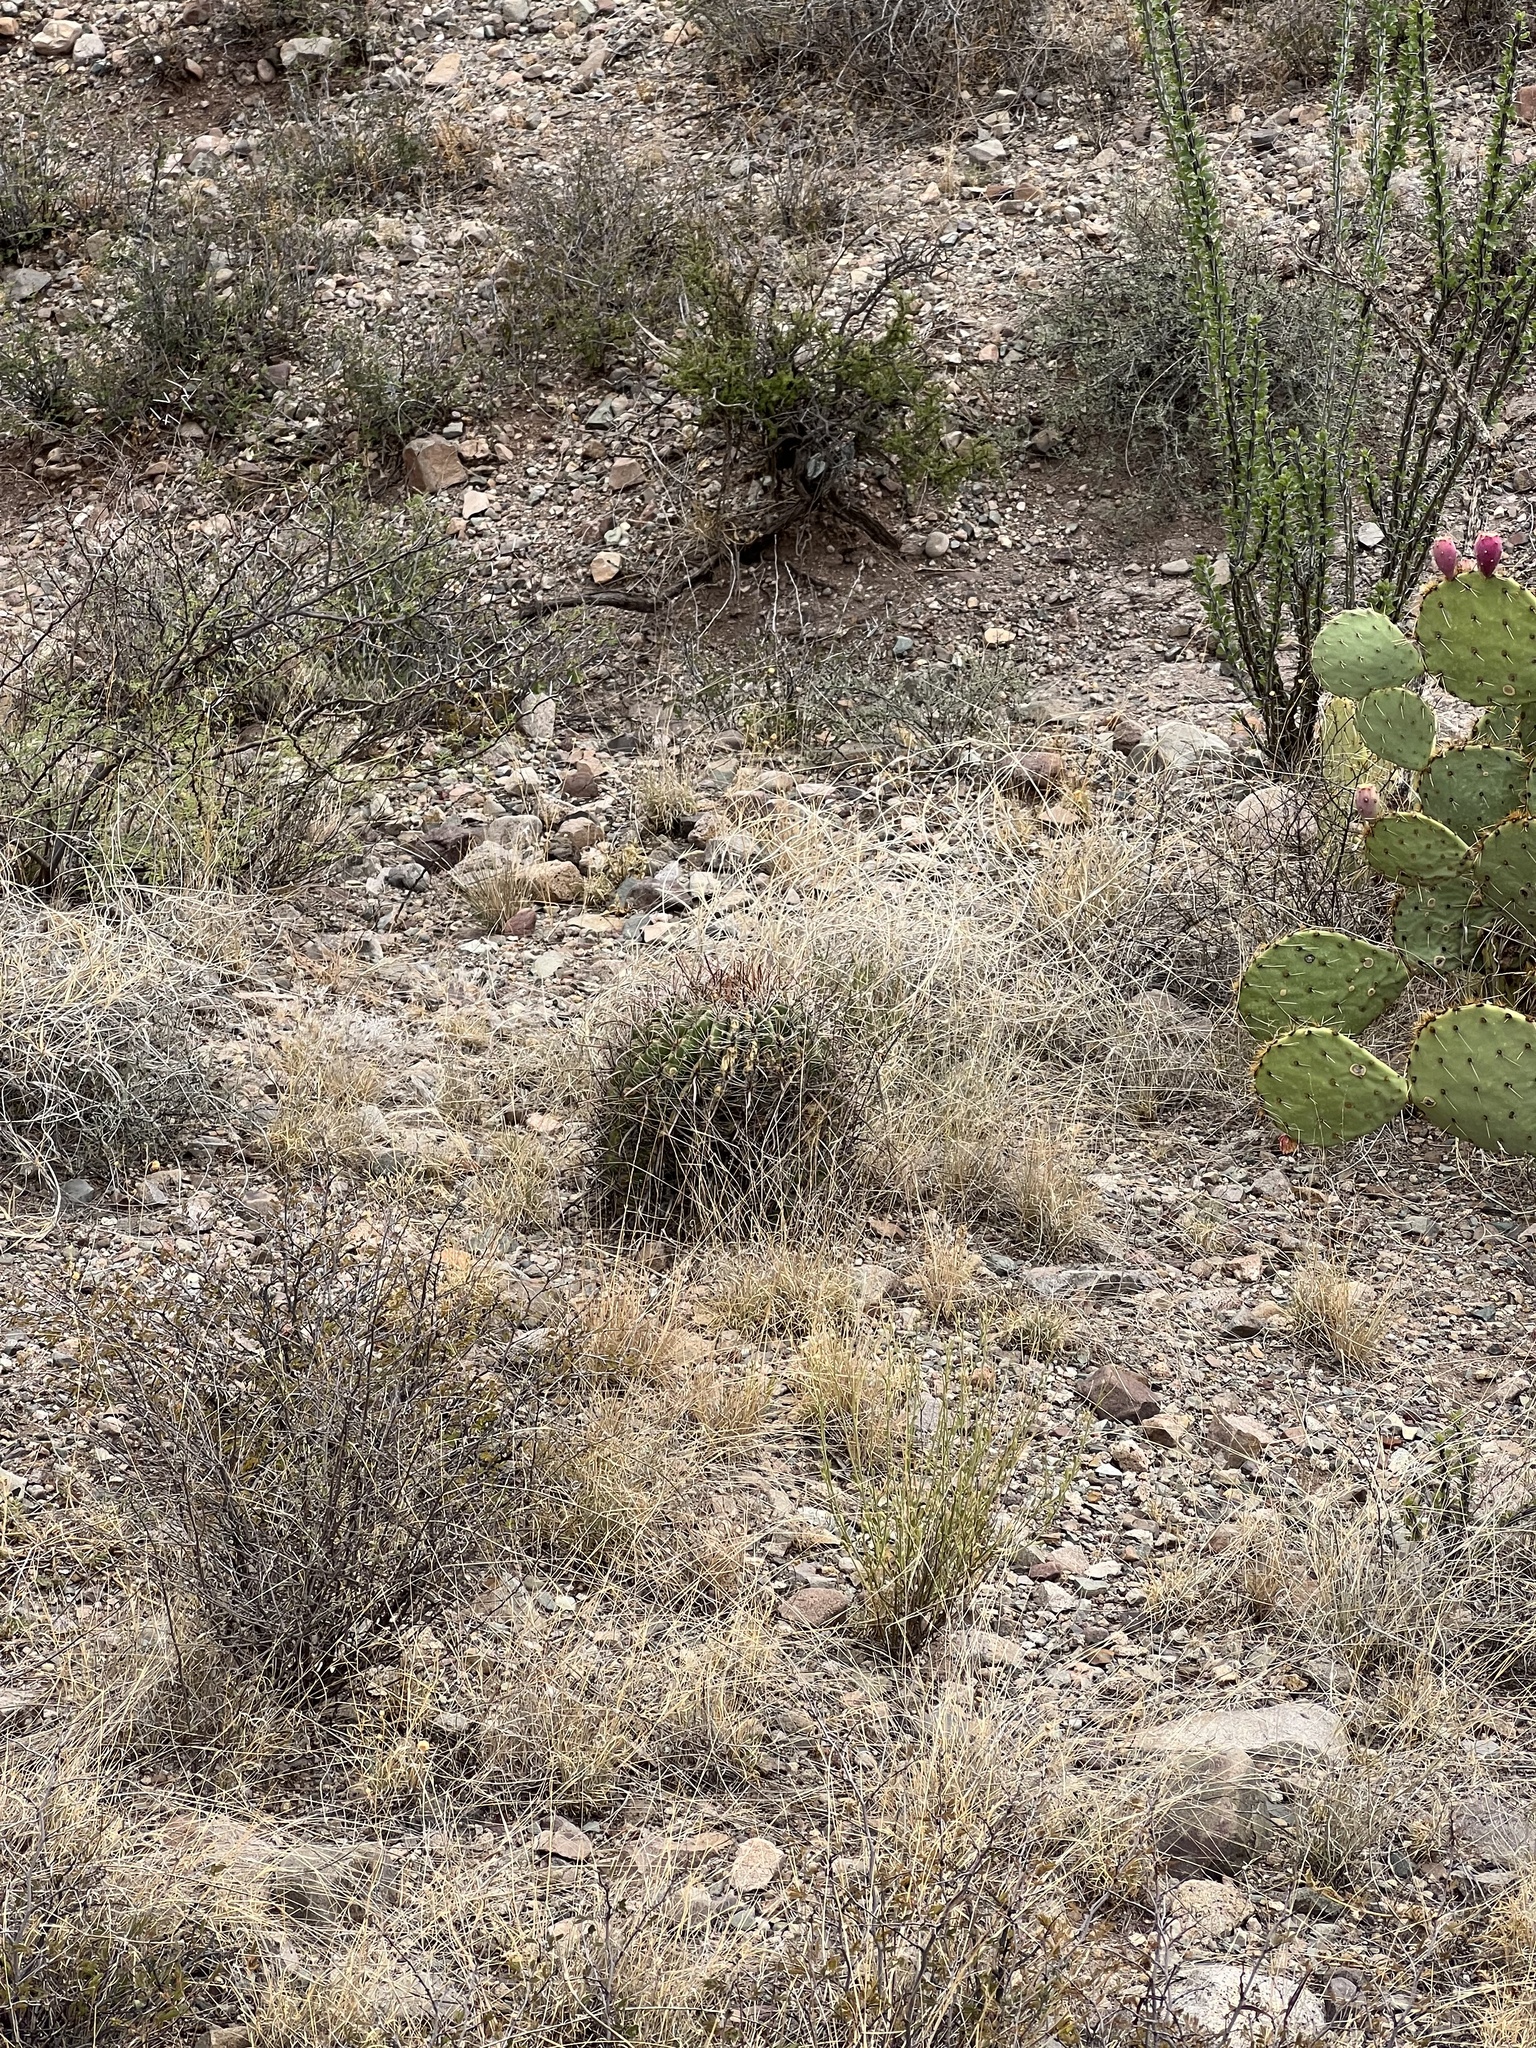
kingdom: Plantae
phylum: Tracheophyta
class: Magnoliopsida
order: Caryophyllales
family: Cactaceae
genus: Ferocactus
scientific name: Ferocactus wislizeni
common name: Candy barrel cactus
